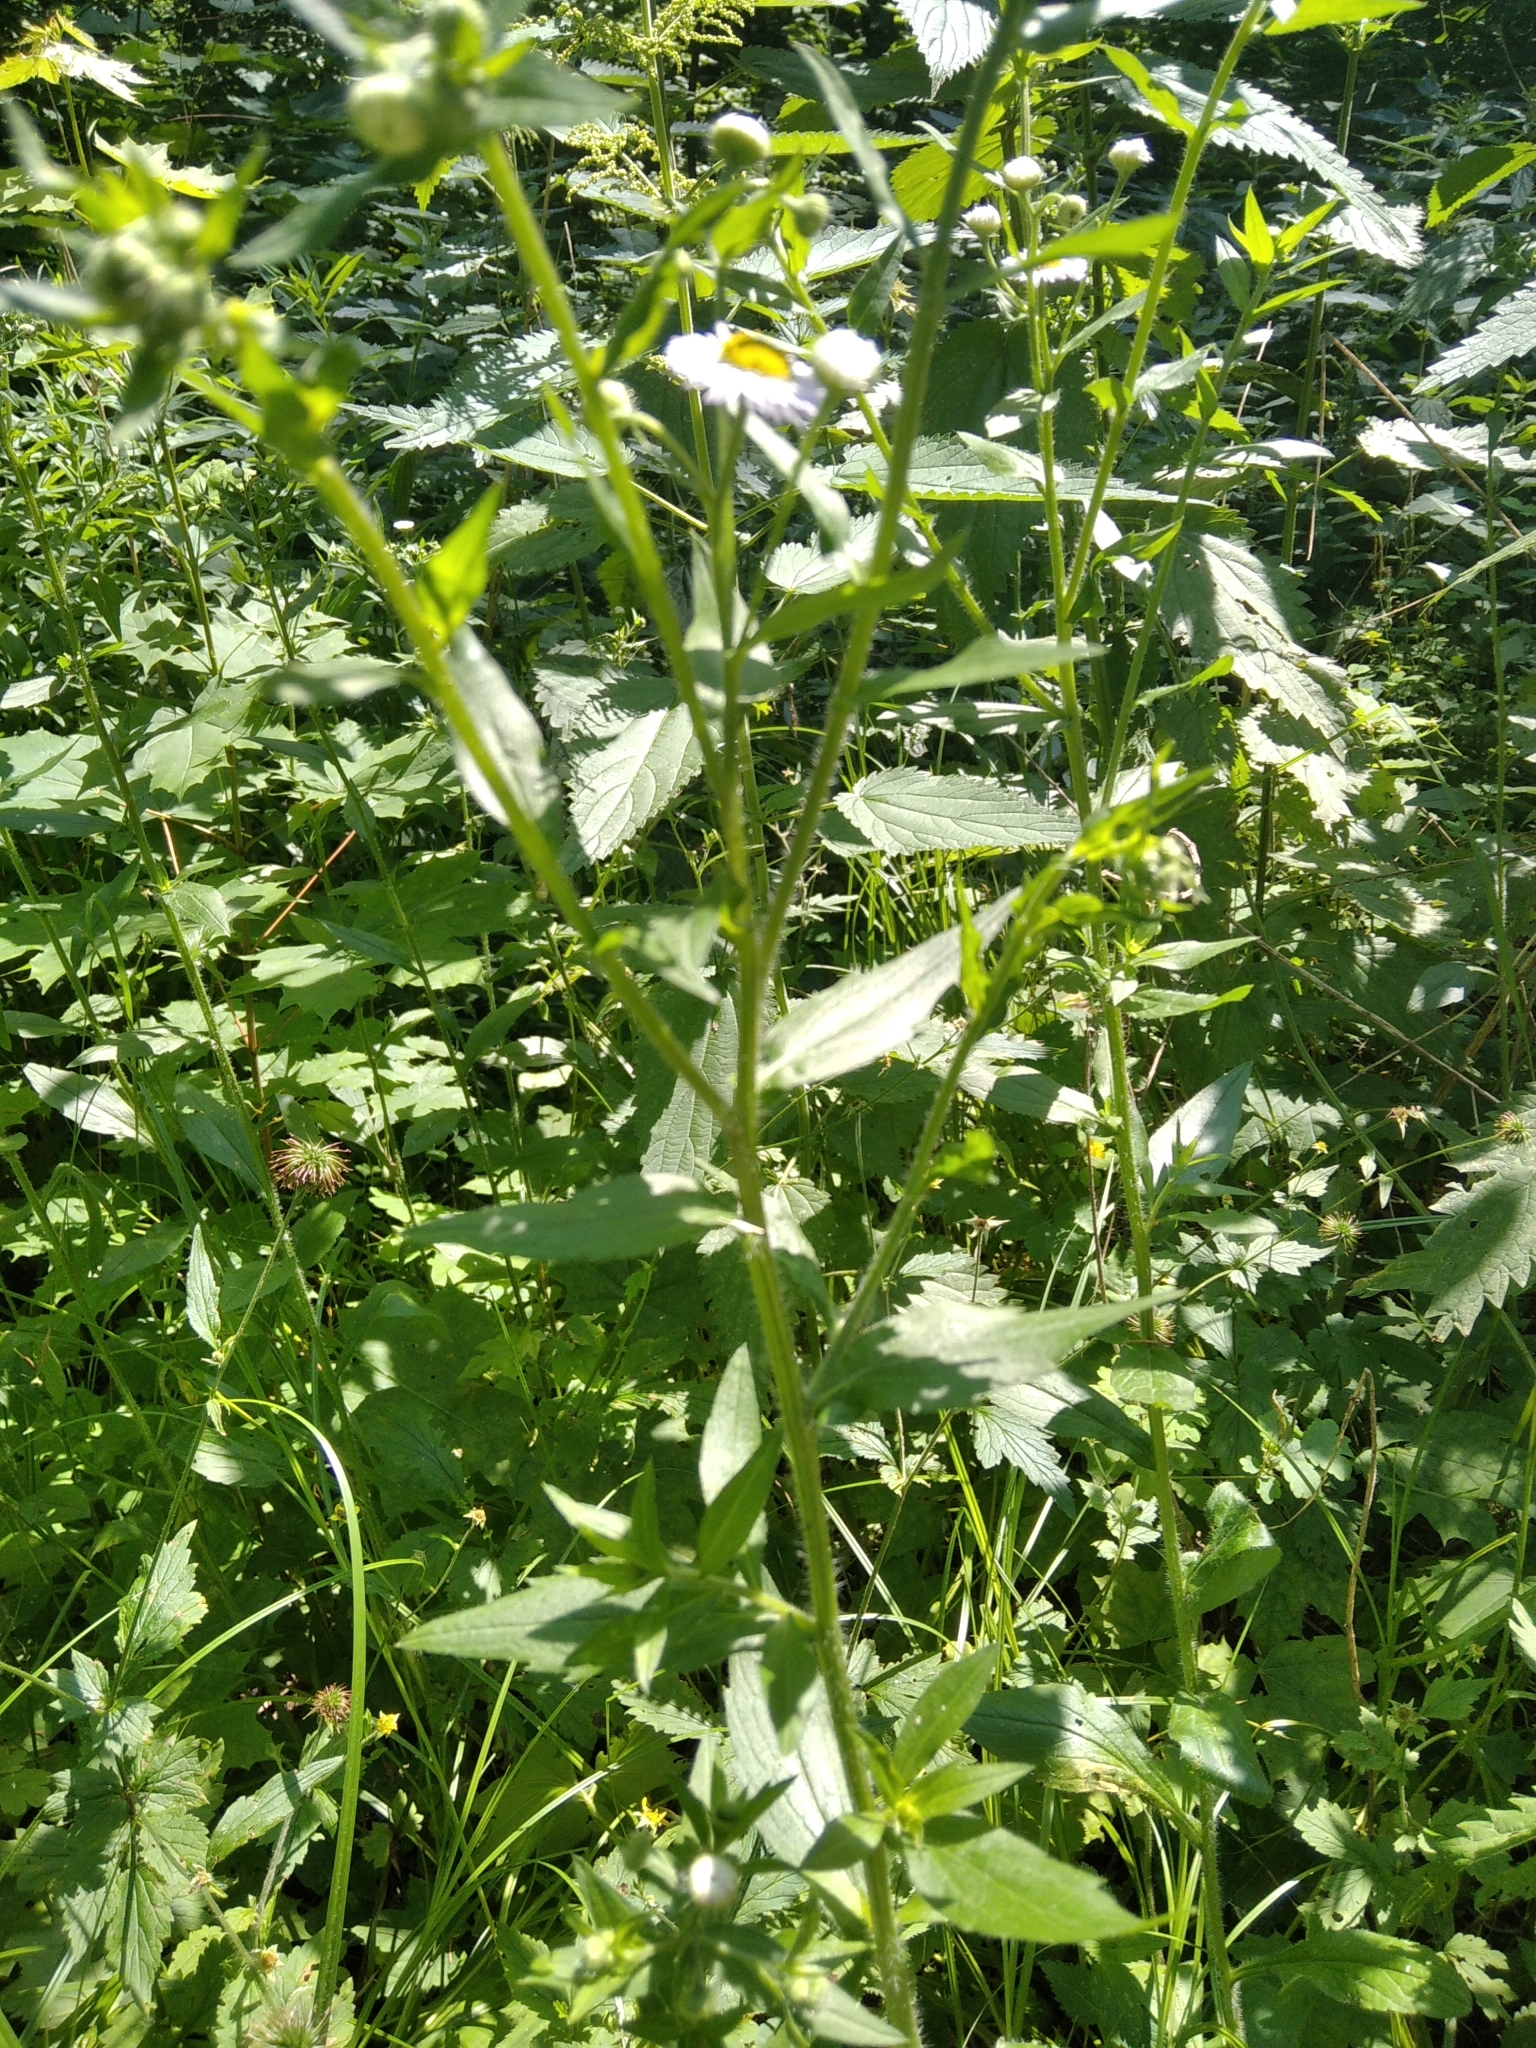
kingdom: Plantae
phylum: Tracheophyta
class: Magnoliopsida
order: Asterales
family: Asteraceae
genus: Erigeron
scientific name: Erigeron annuus
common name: Tall fleabane
